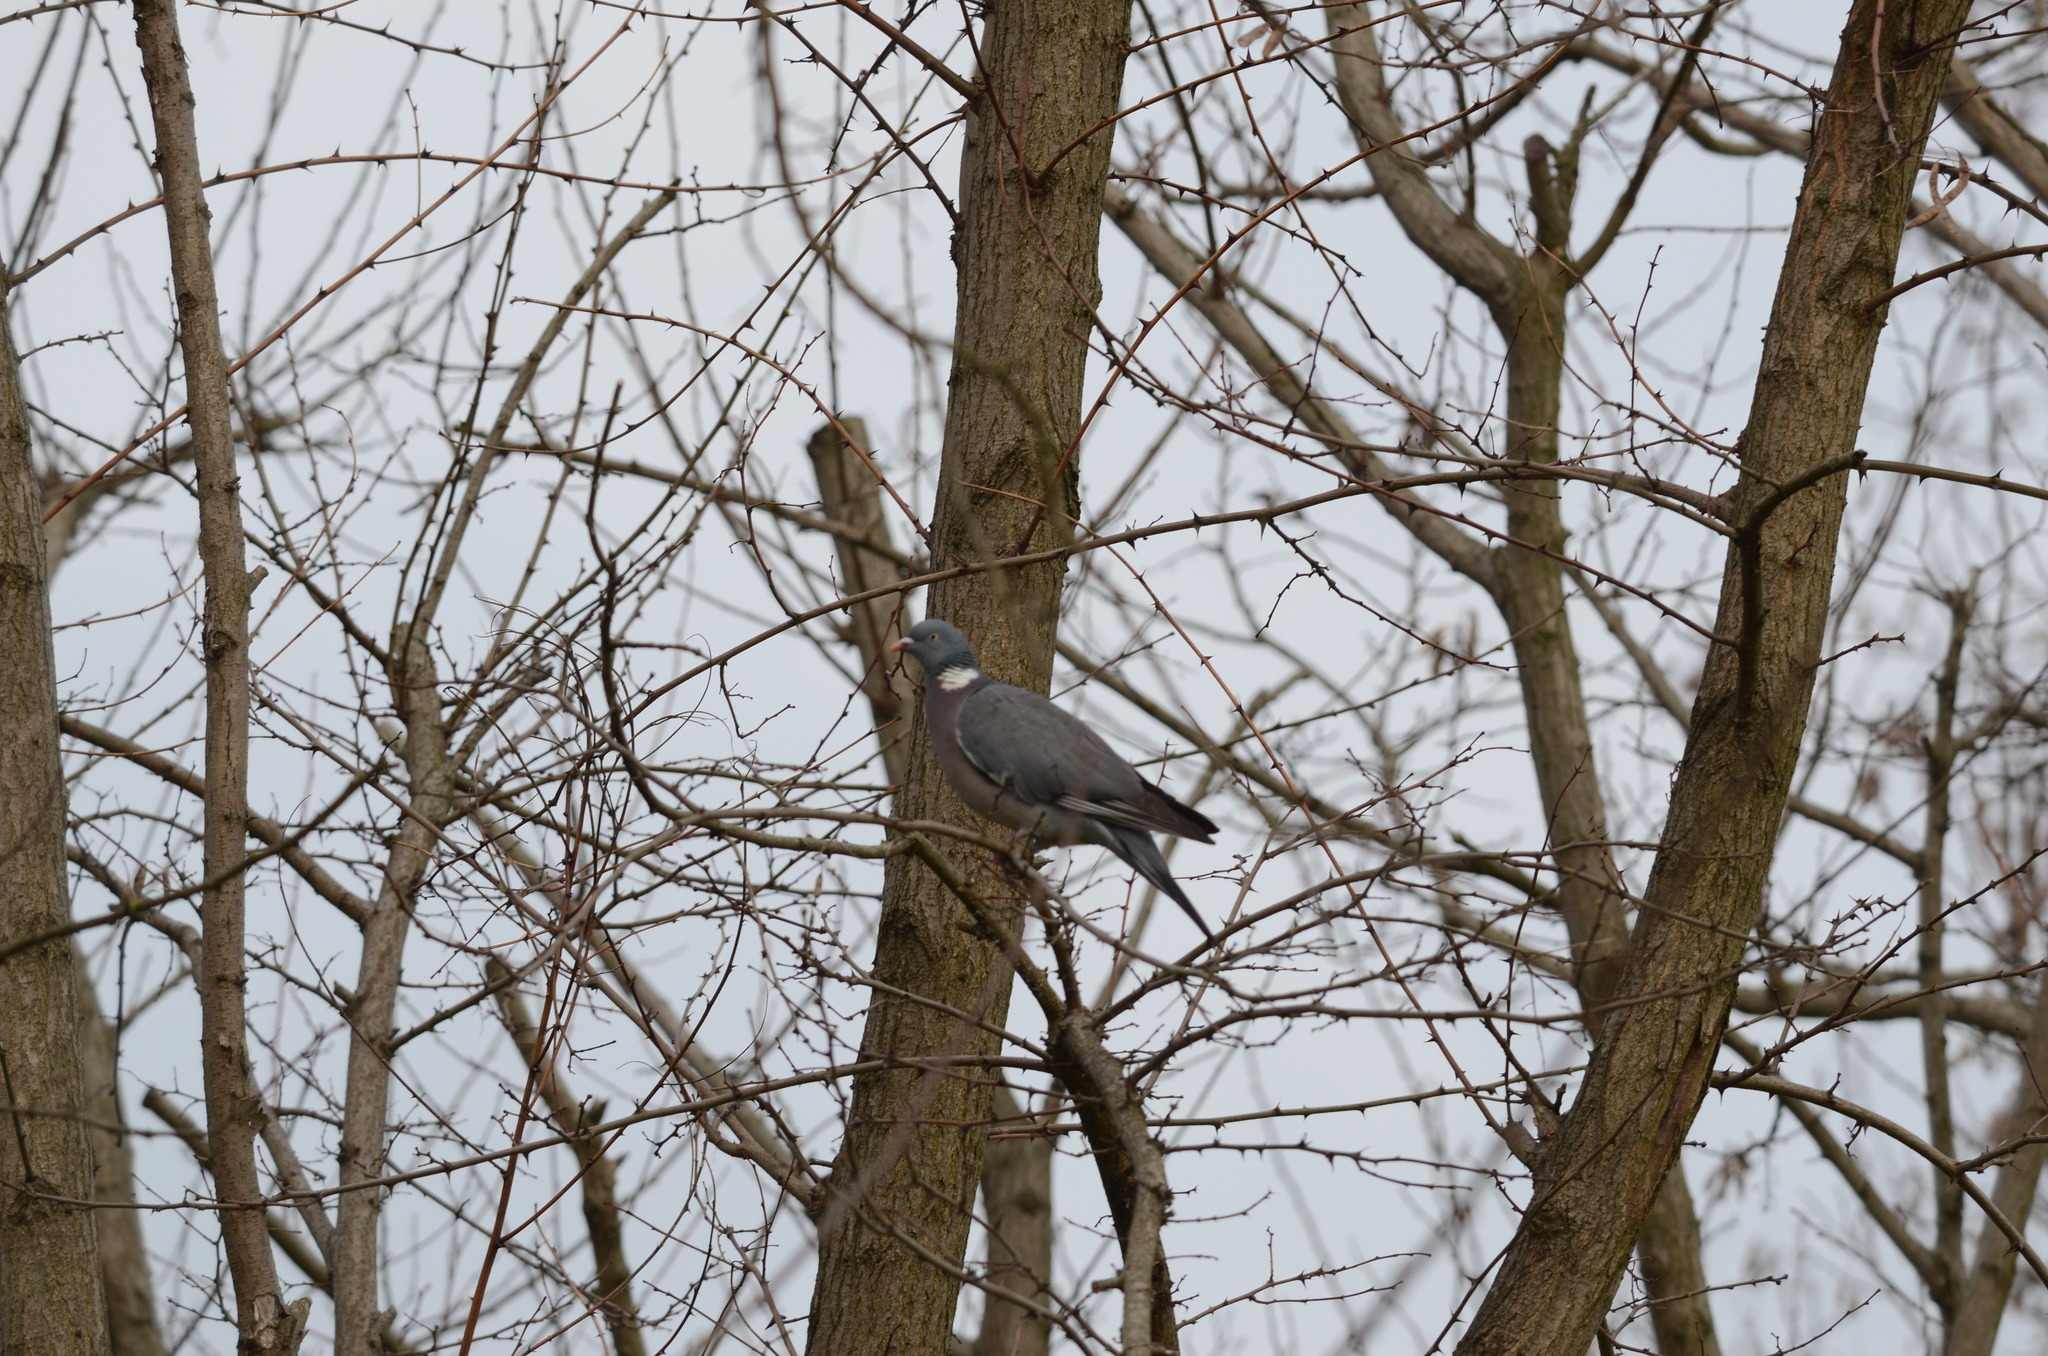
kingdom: Animalia
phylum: Chordata
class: Aves
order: Columbiformes
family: Columbidae
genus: Columba
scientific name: Columba palumbus
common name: Common wood pigeon
